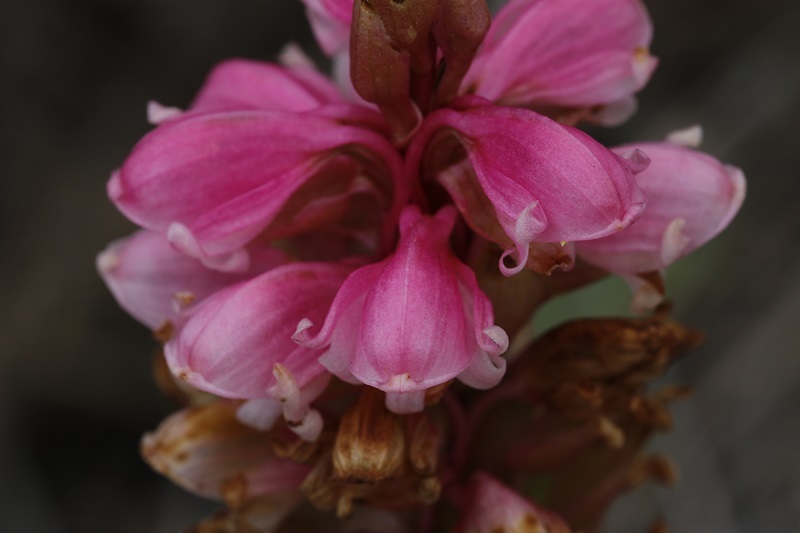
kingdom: Plantae
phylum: Tracheophyta
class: Liliopsida
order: Asparagales
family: Orchidaceae
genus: Satyrium
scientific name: Satyrium carneum
